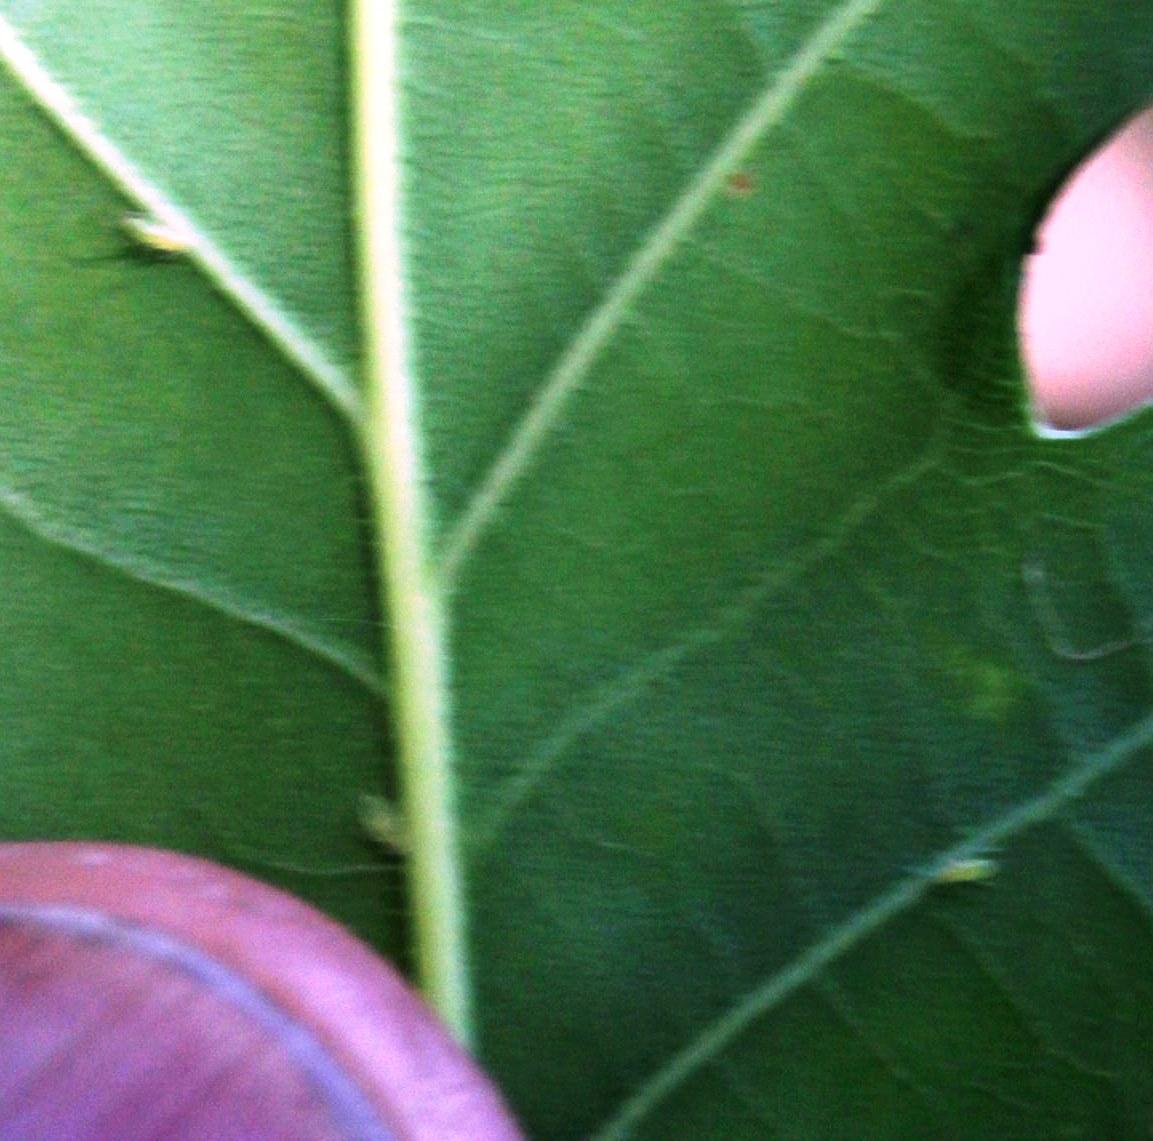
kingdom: Plantae
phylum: Tracheophyta
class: Magnoliopsida
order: Fagales
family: Fagaceae
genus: Quercus
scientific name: Quercus robur
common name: Pedunculate oak
